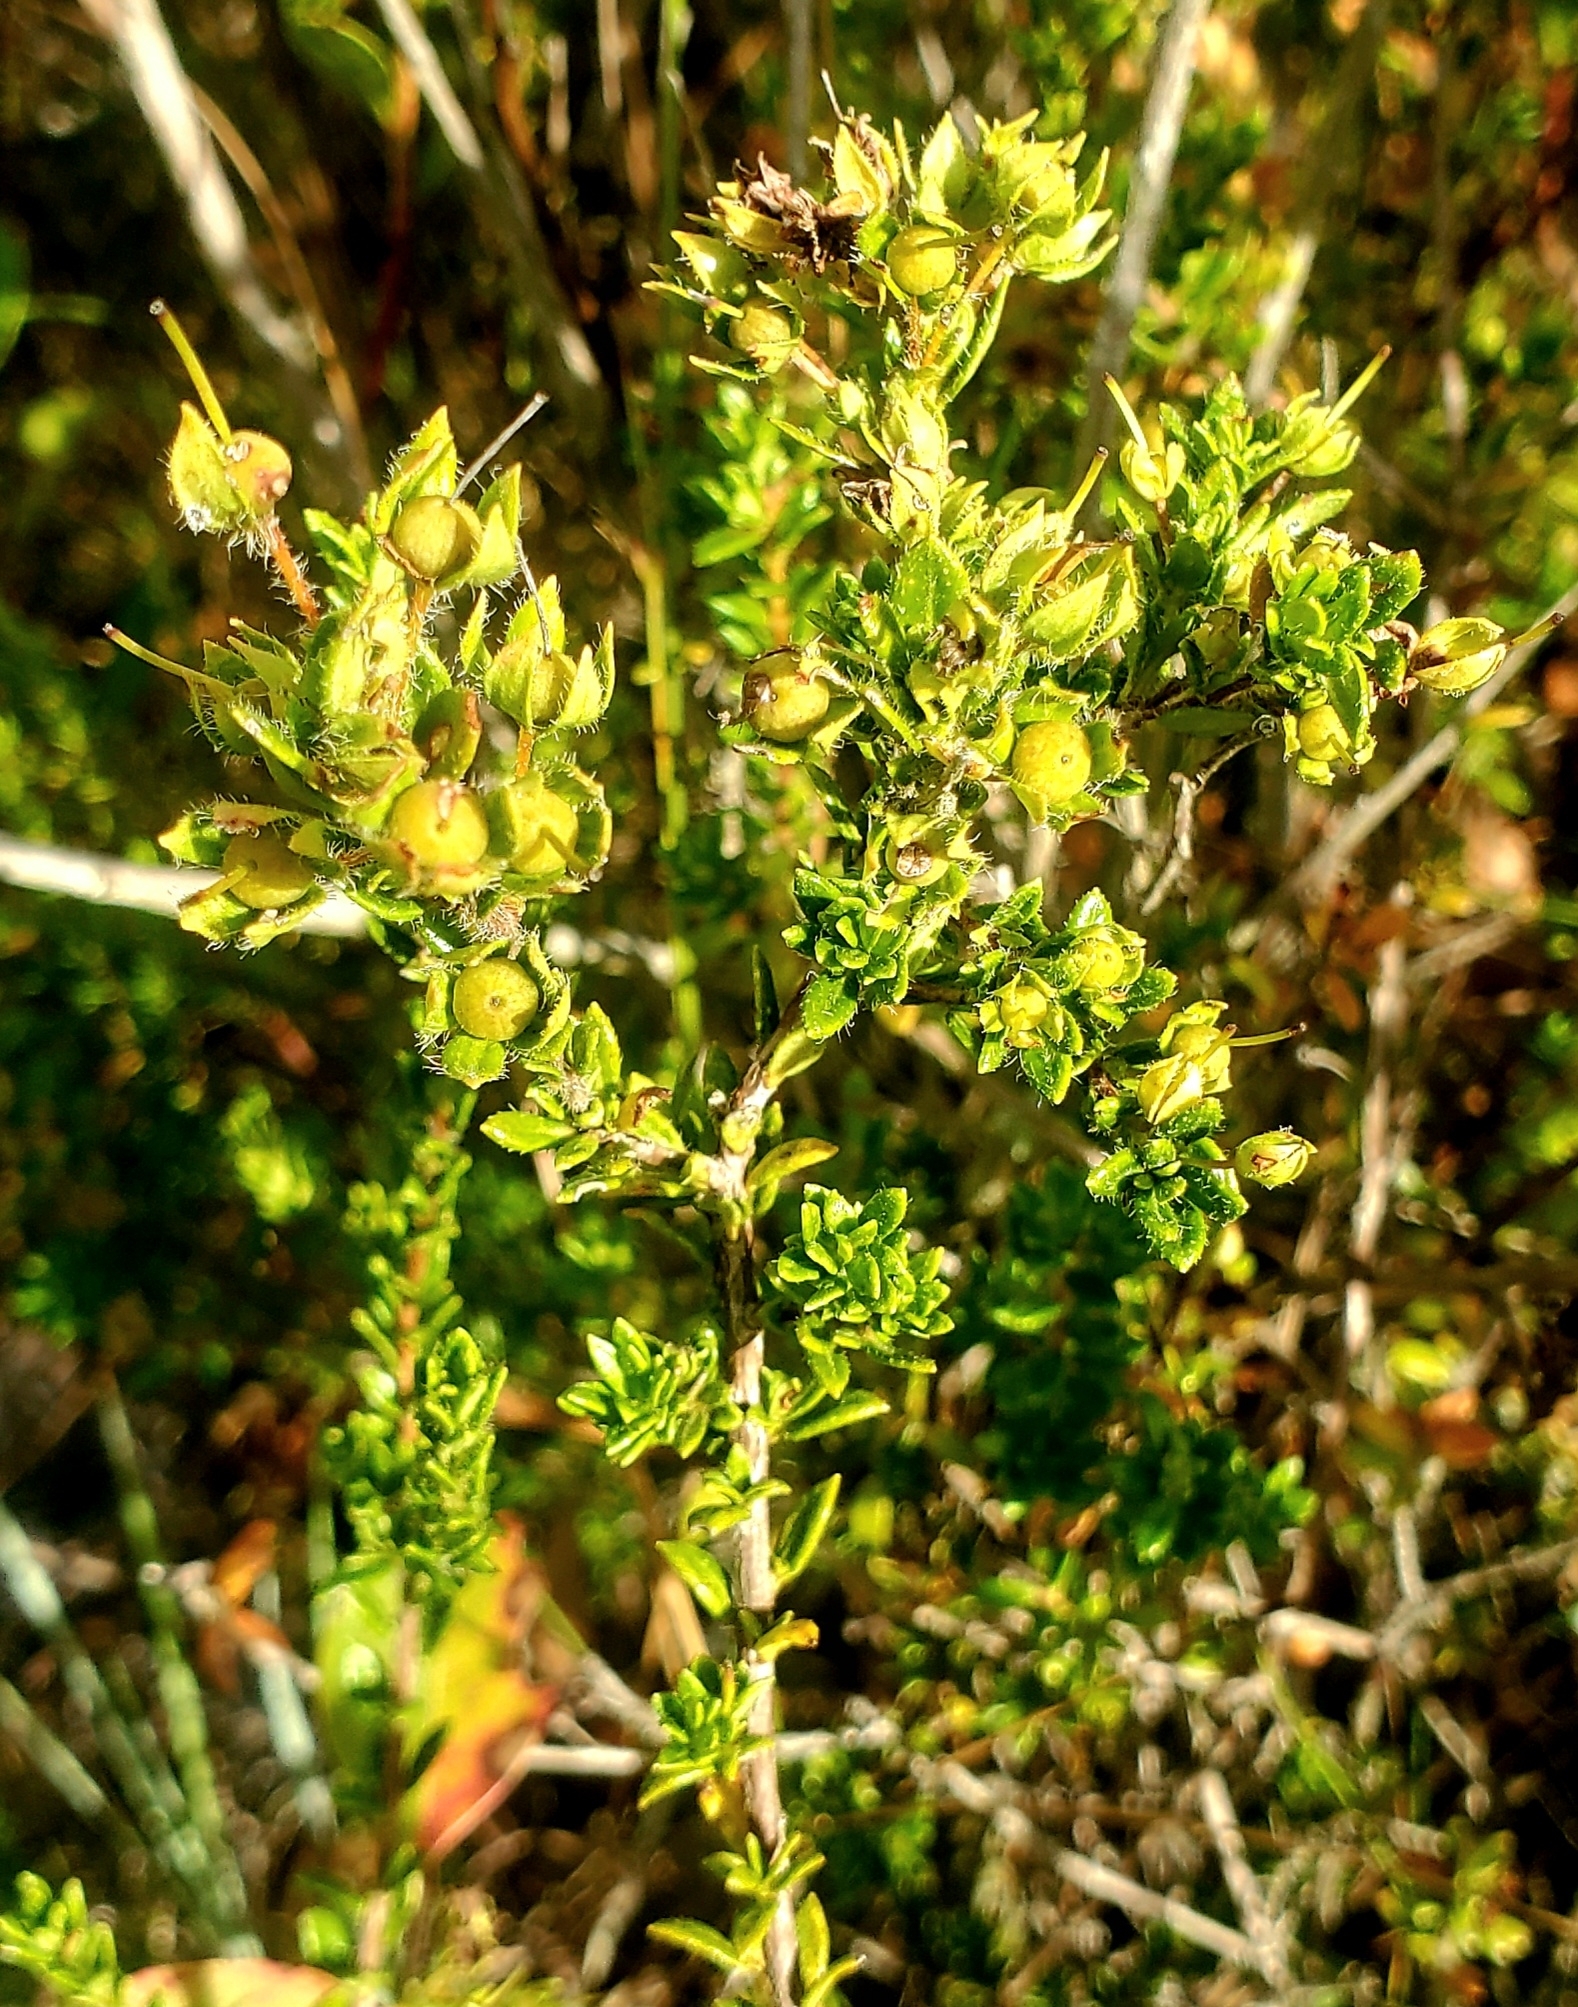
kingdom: Plantae
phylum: Tracheophyta
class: Magnoliopsida
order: Ericales
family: Ericaceae
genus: Kalmia
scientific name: Kalmia hirsuta
